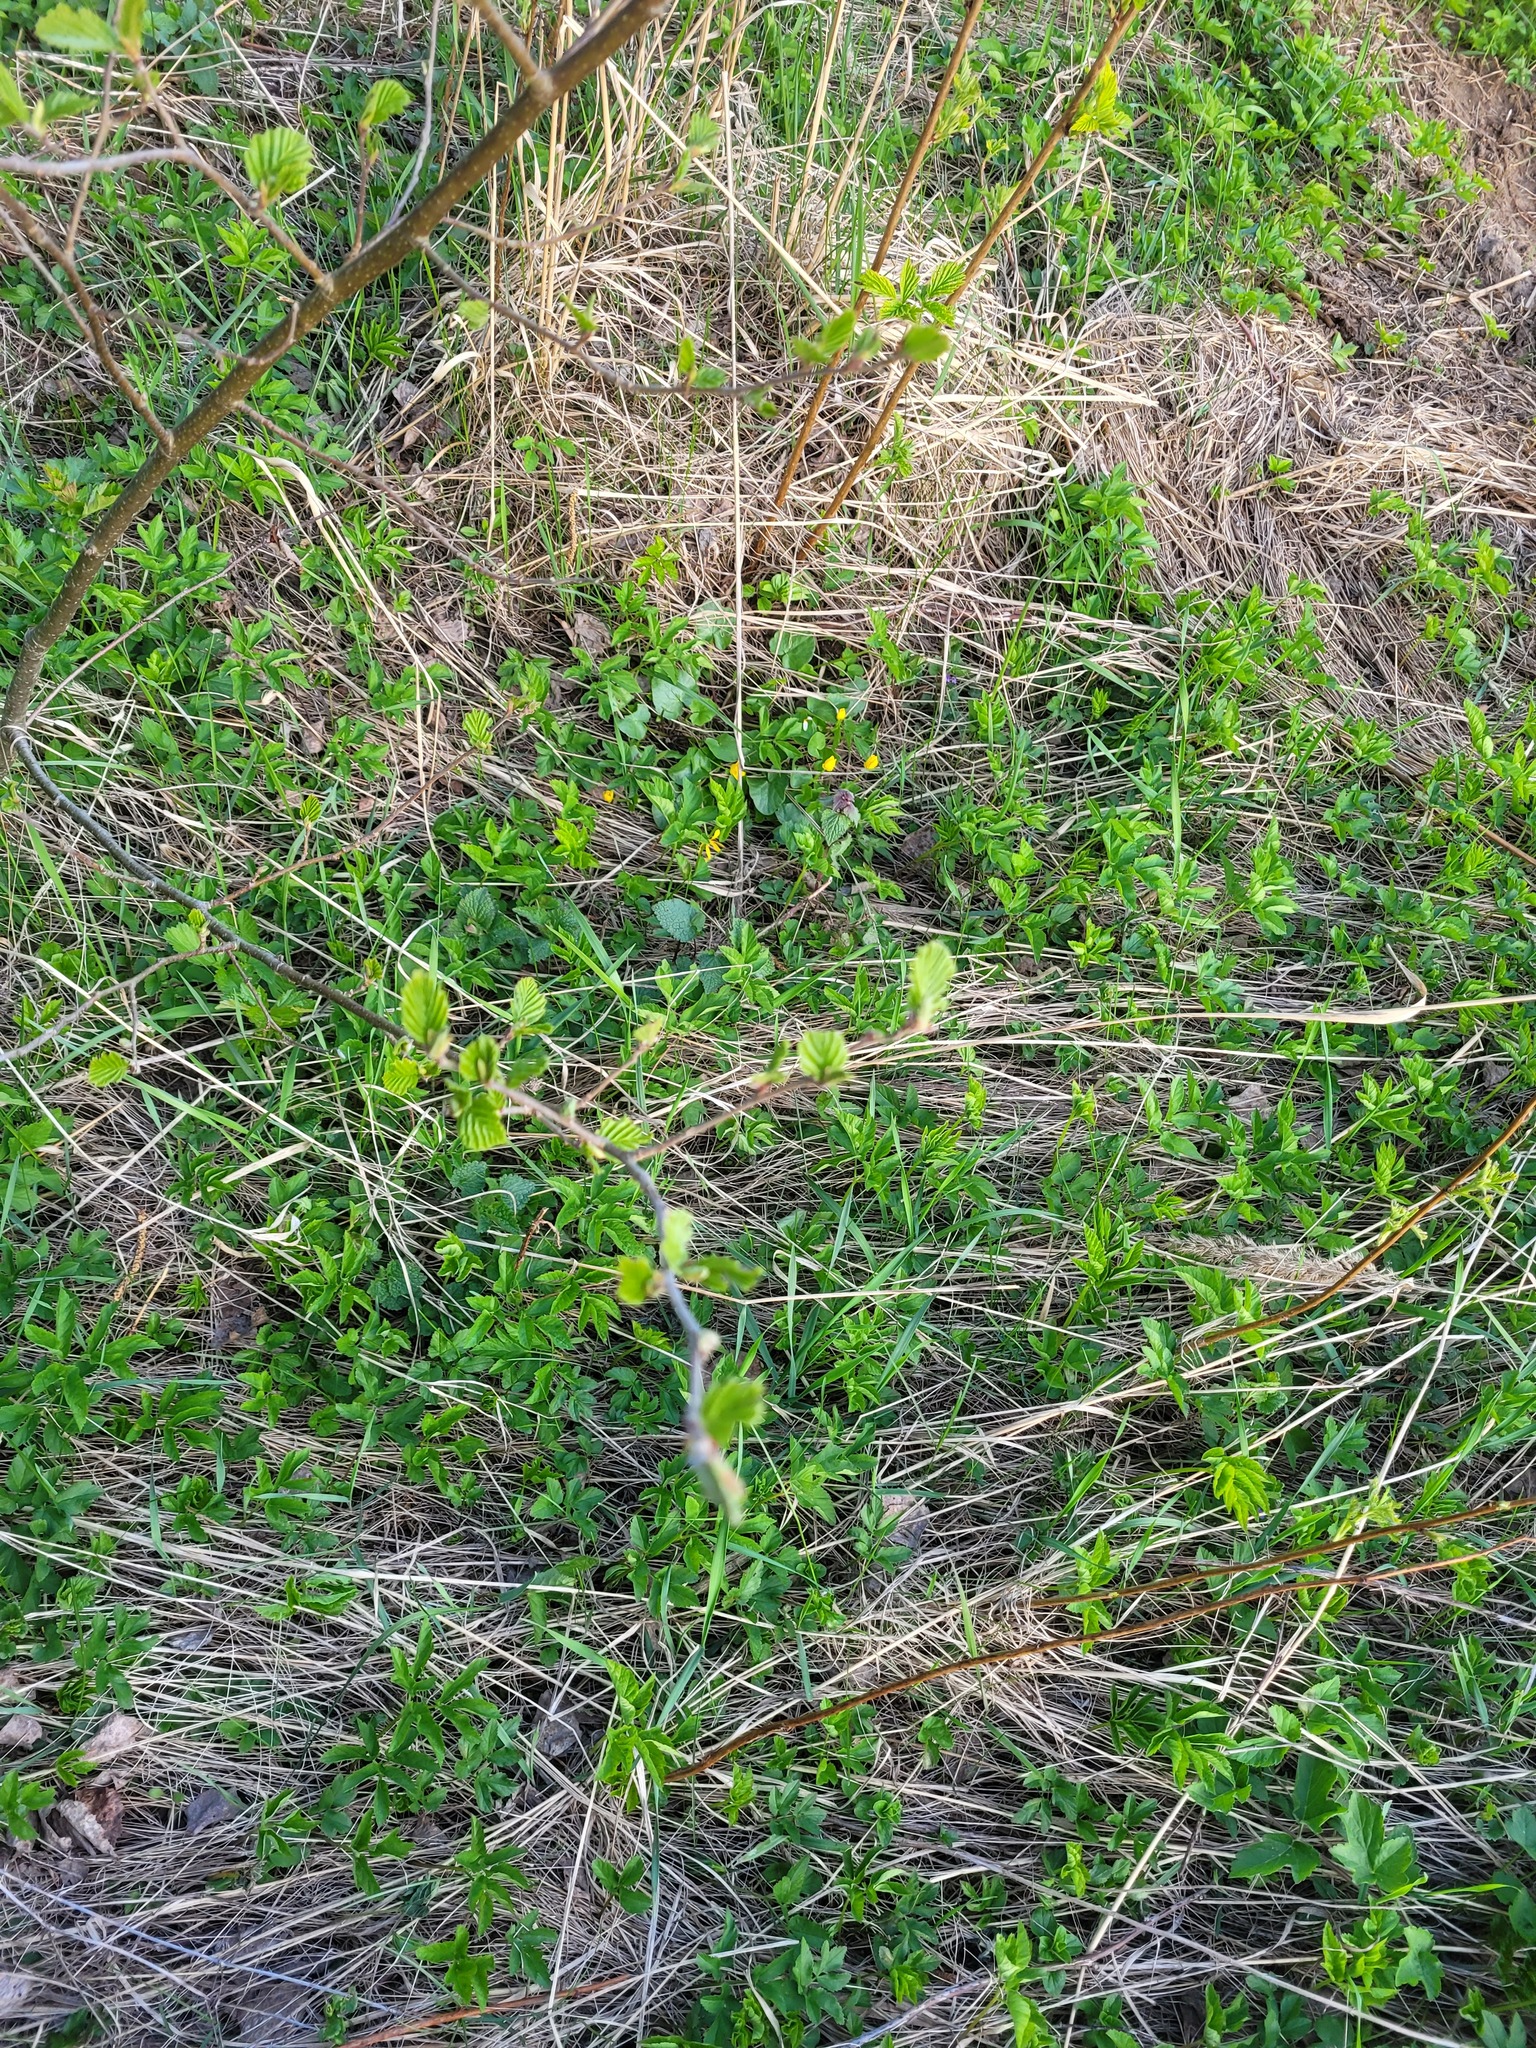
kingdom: Plantae
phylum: Tracheophyta
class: Magnoliopsida
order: Fagales
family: Betulaceae
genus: Alnus
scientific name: Alnus incana
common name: Grey alder
